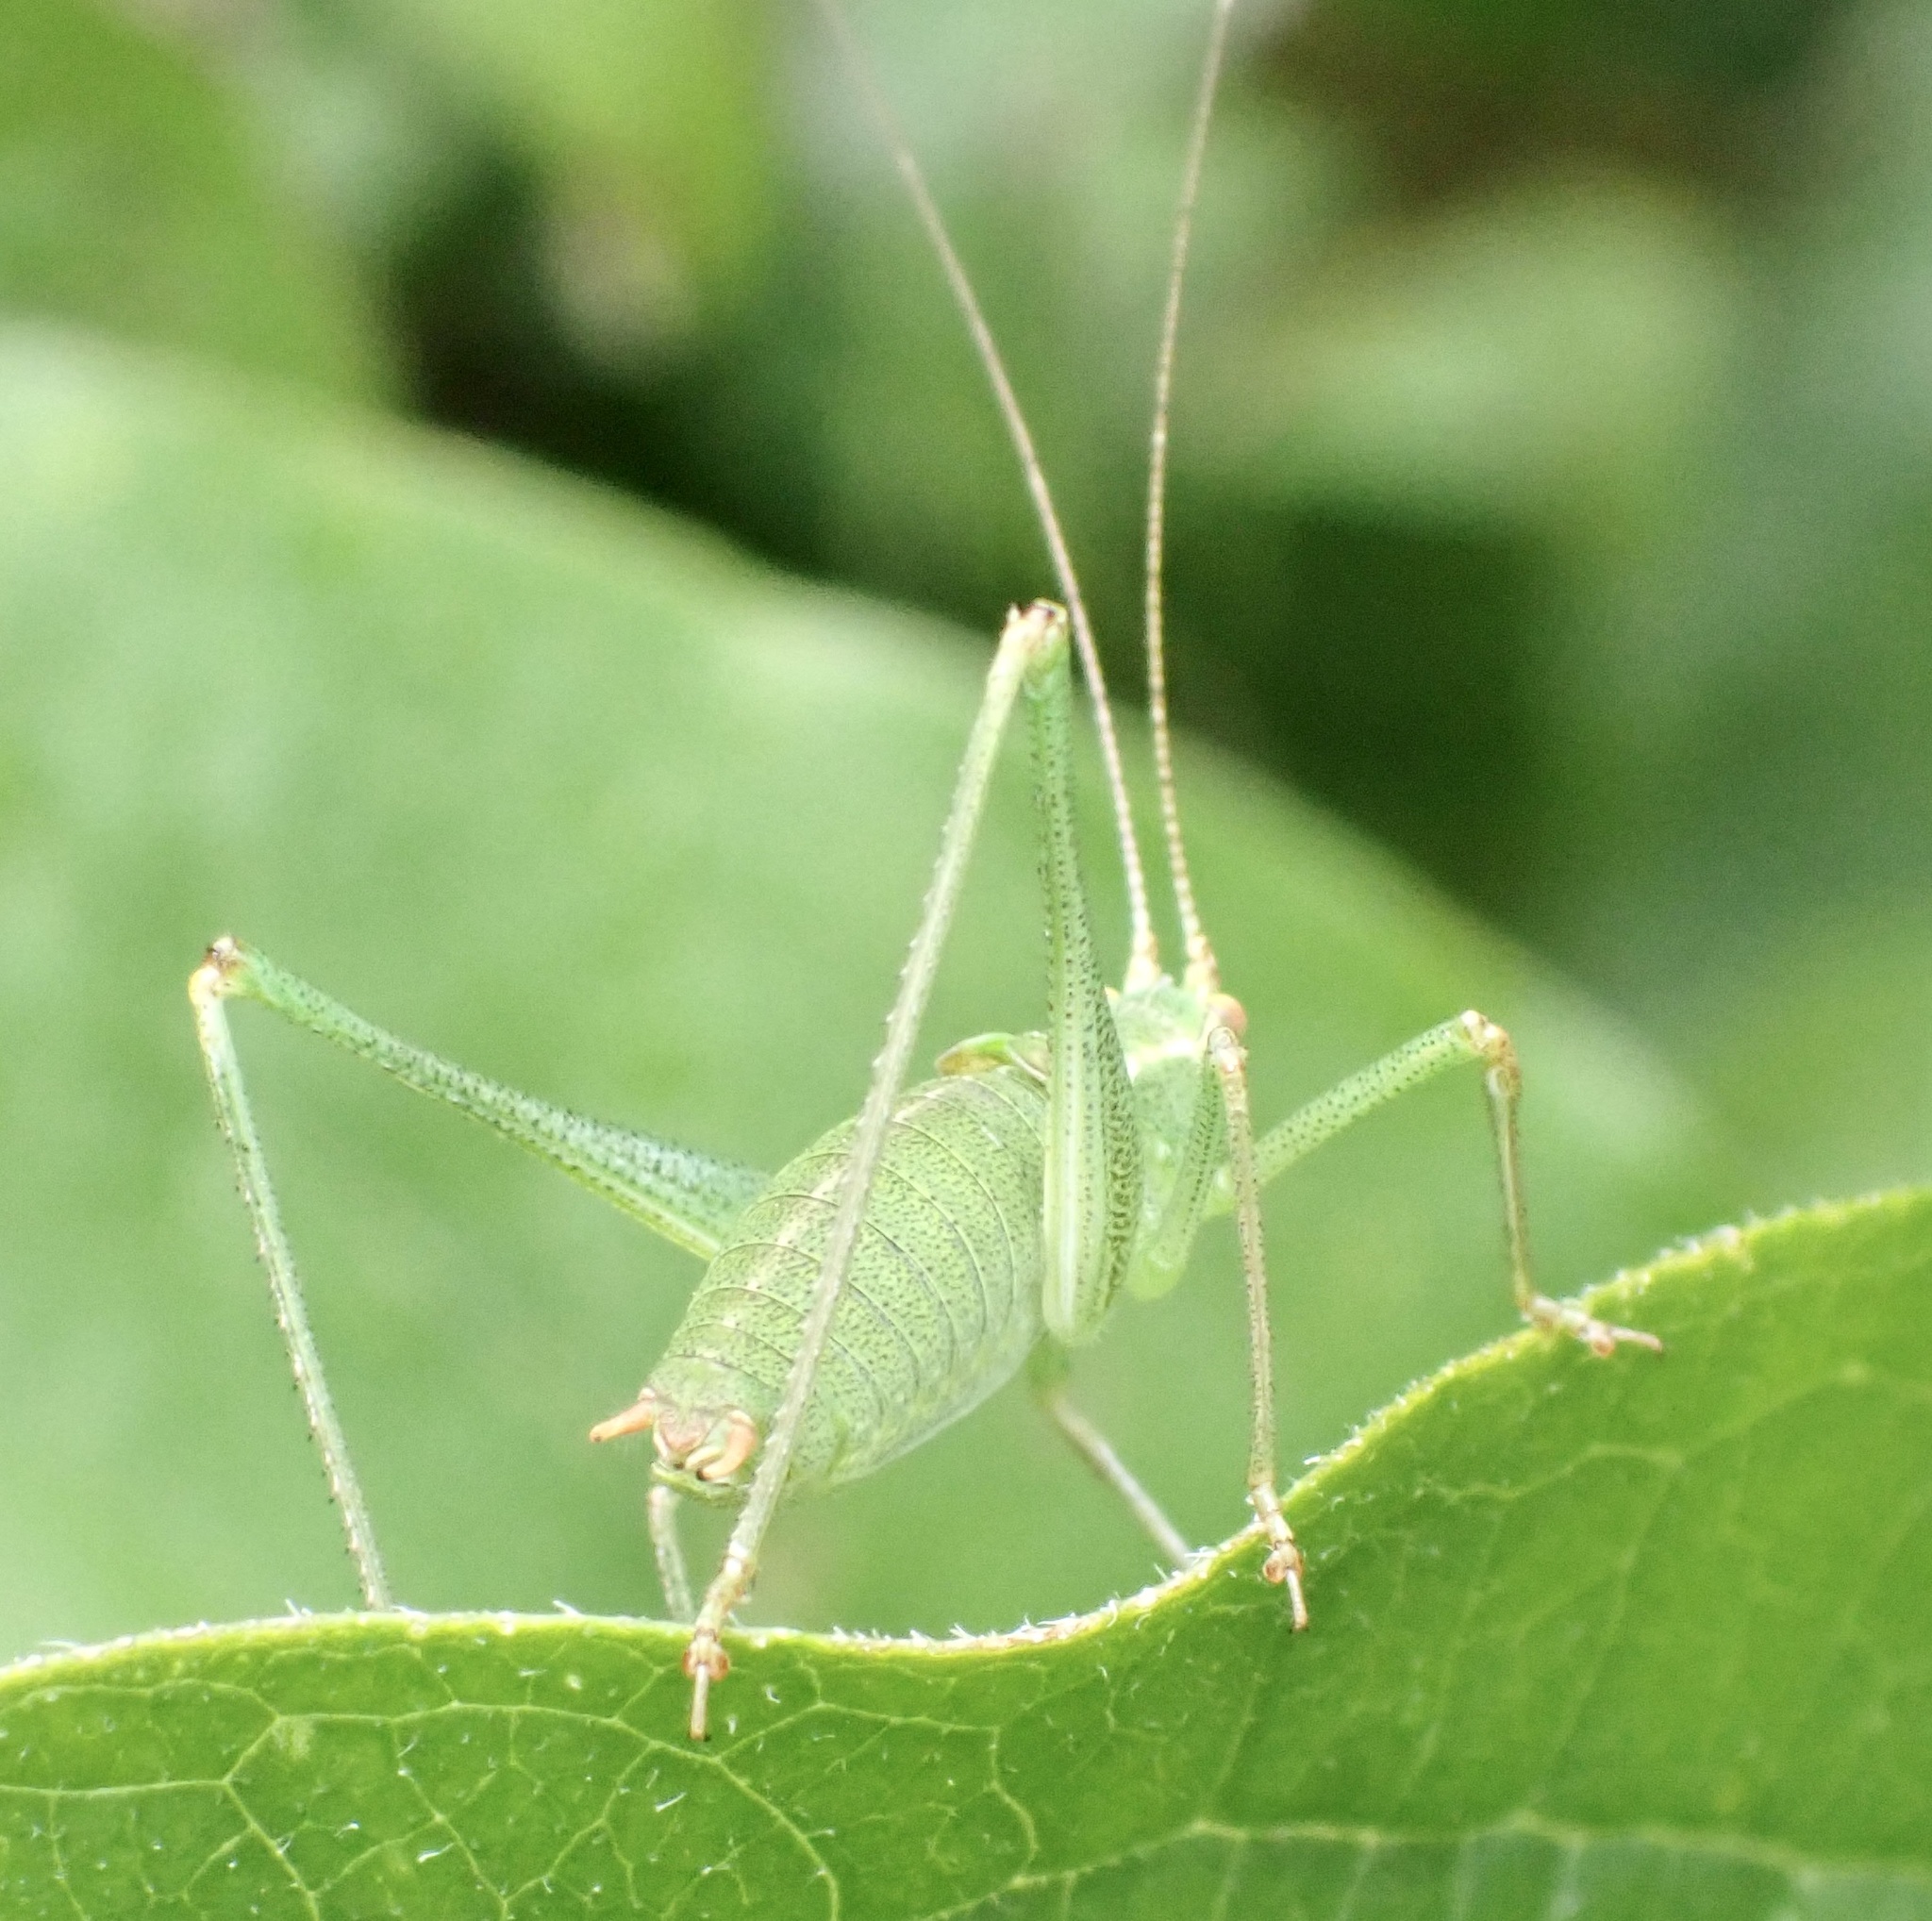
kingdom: Animalia
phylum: Arthropoda
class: Insecta
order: Orthoptera
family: Tettigoniidae
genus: Leptophyes
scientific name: Leptophyes punctatissima
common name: Speckled bush-cricket
